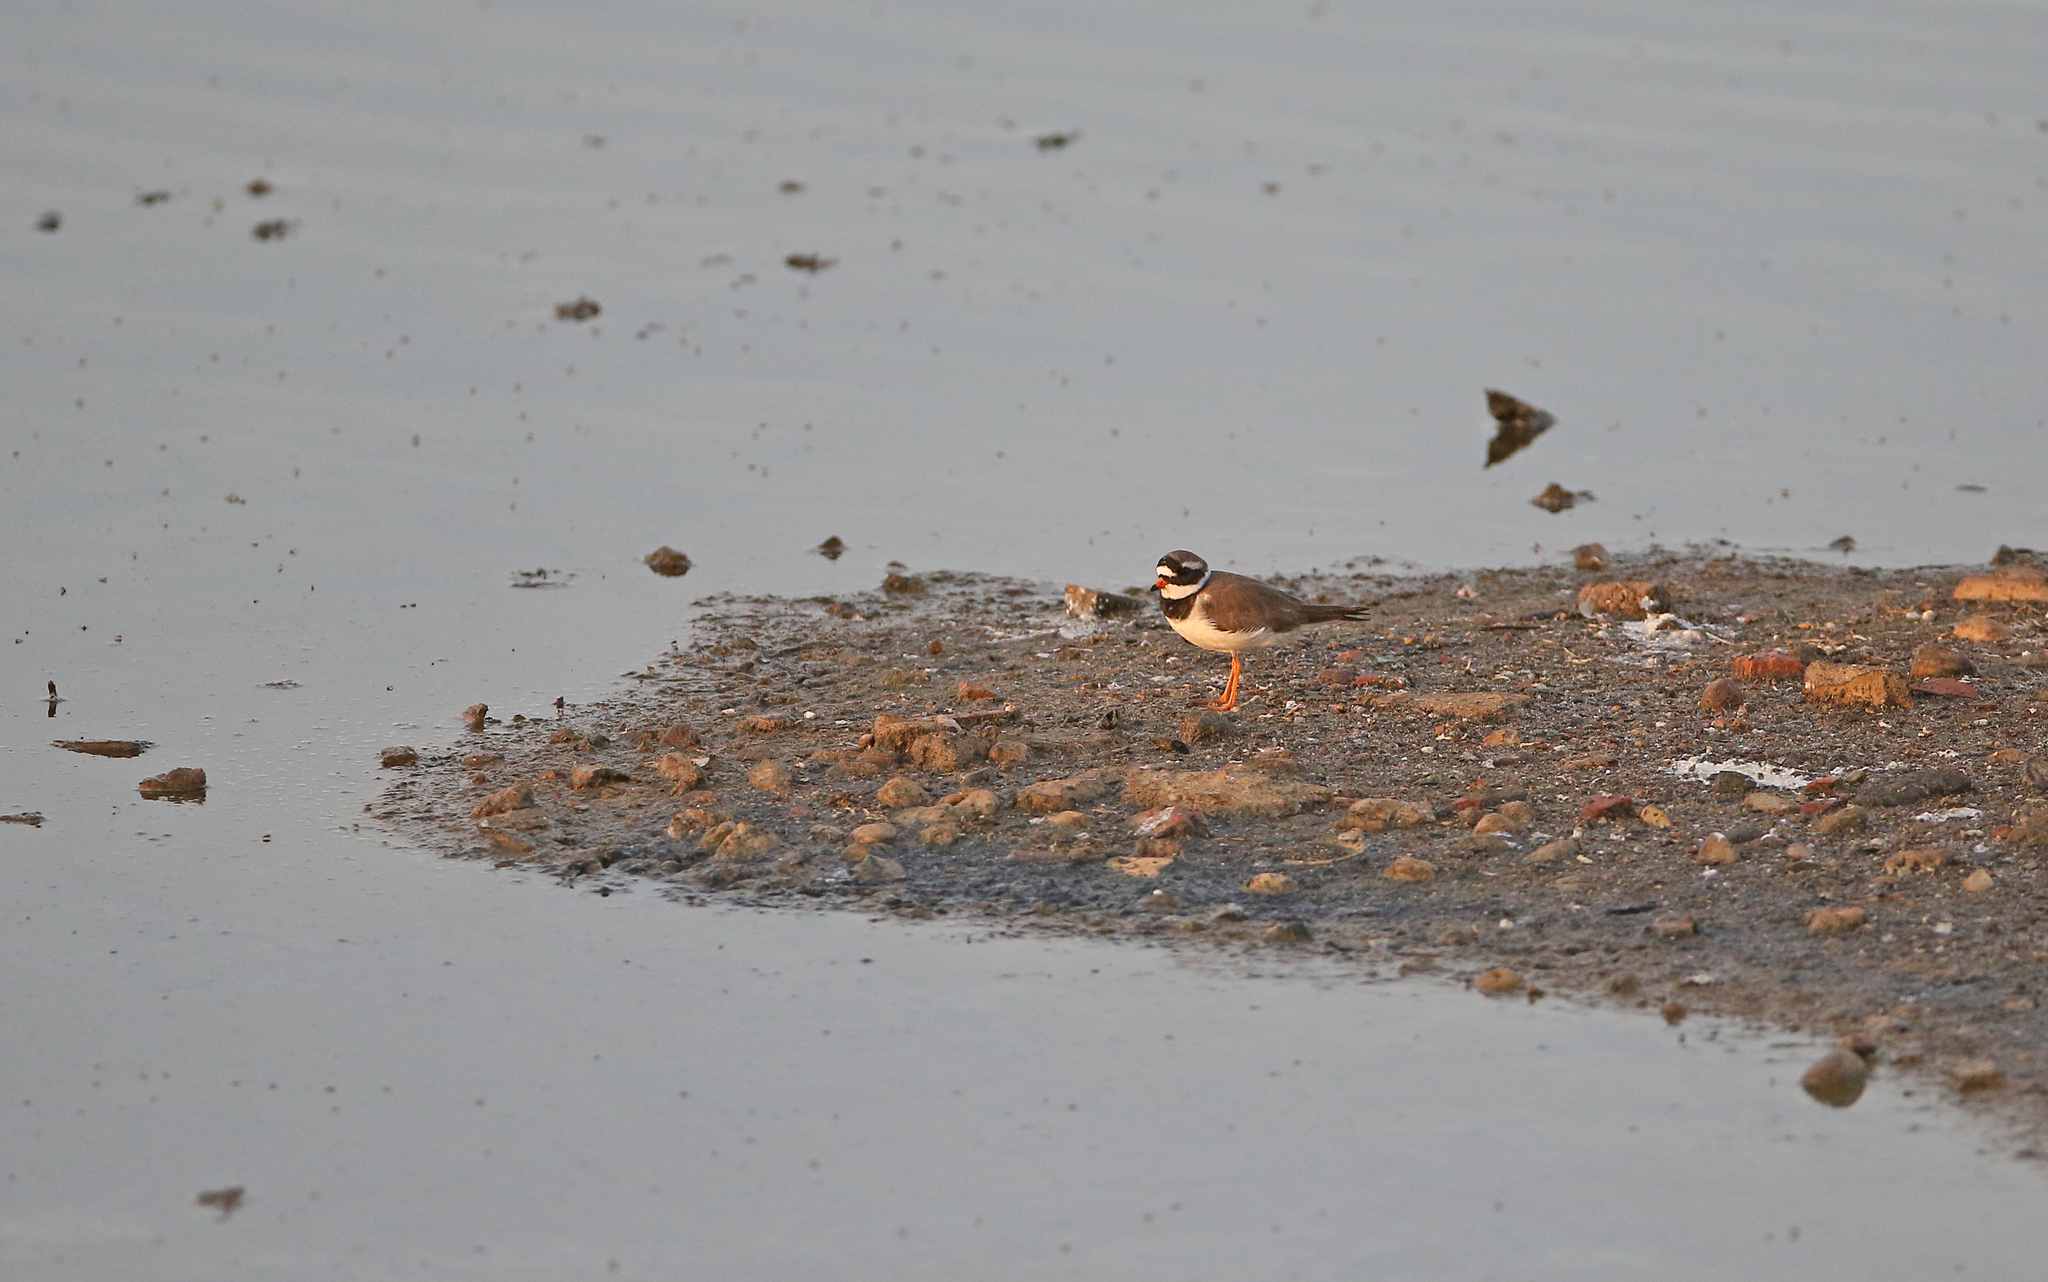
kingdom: Animalia
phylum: Chordata
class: Aves
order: Charadriiformes
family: Charadriidae
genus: Charadrius
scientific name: Charadrius hiaticula
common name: Common ringed plover
